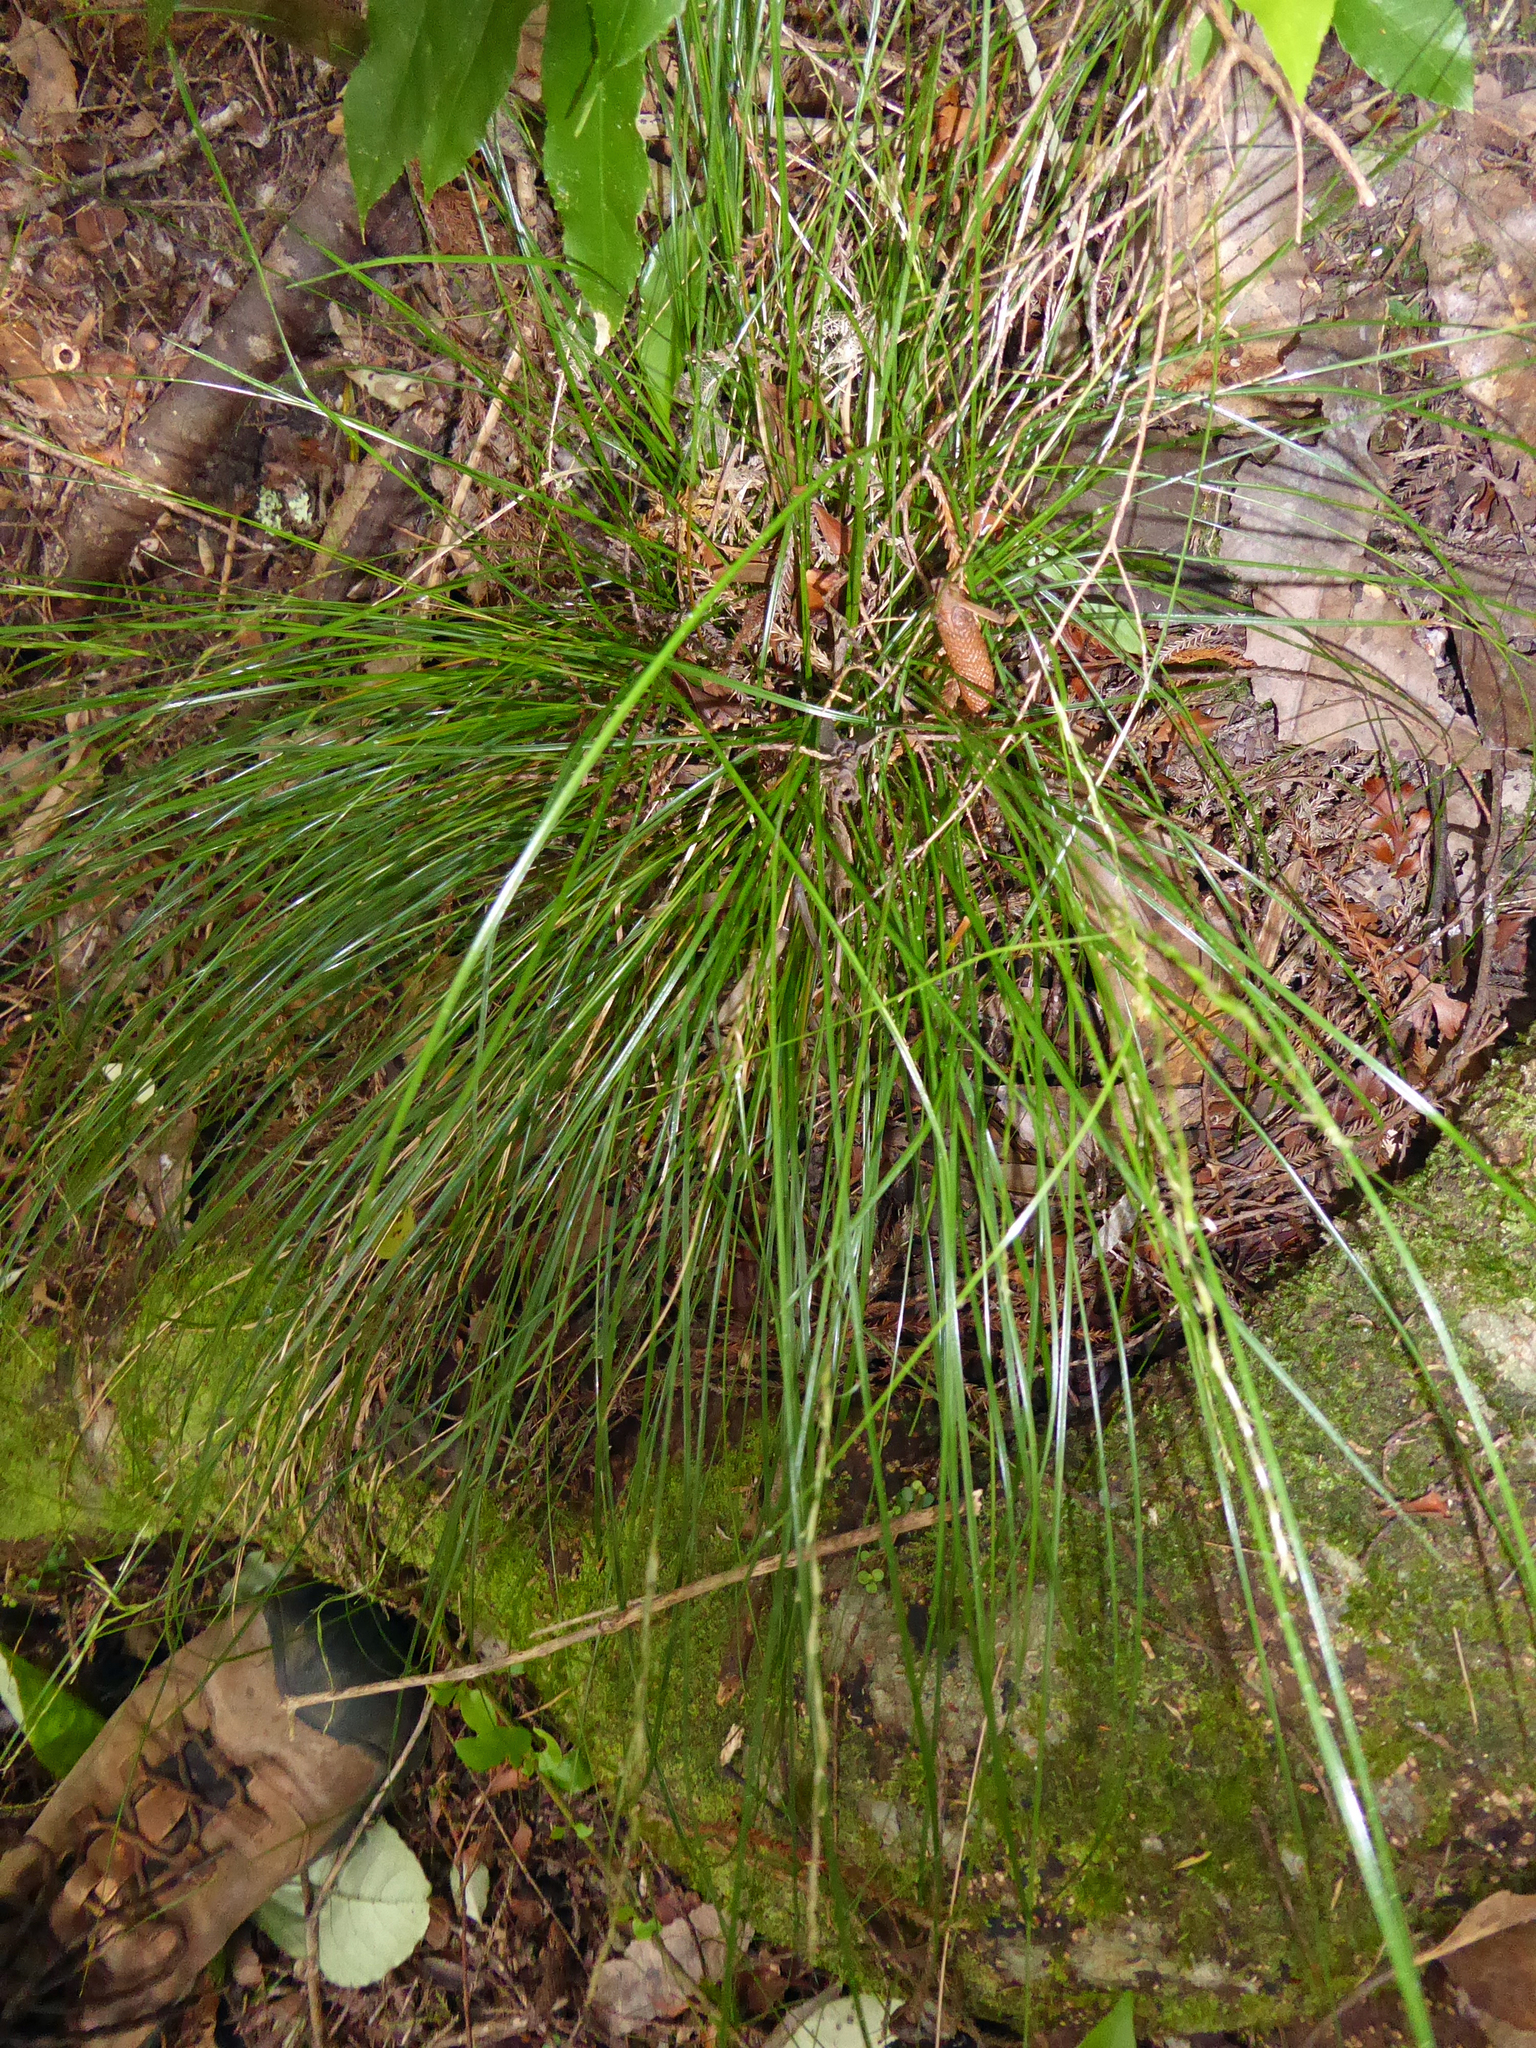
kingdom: Plantae
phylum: Tracheophyta
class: Liliopsida
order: Poales
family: Cyperaceae
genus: Carex
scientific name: Carex banksiana
